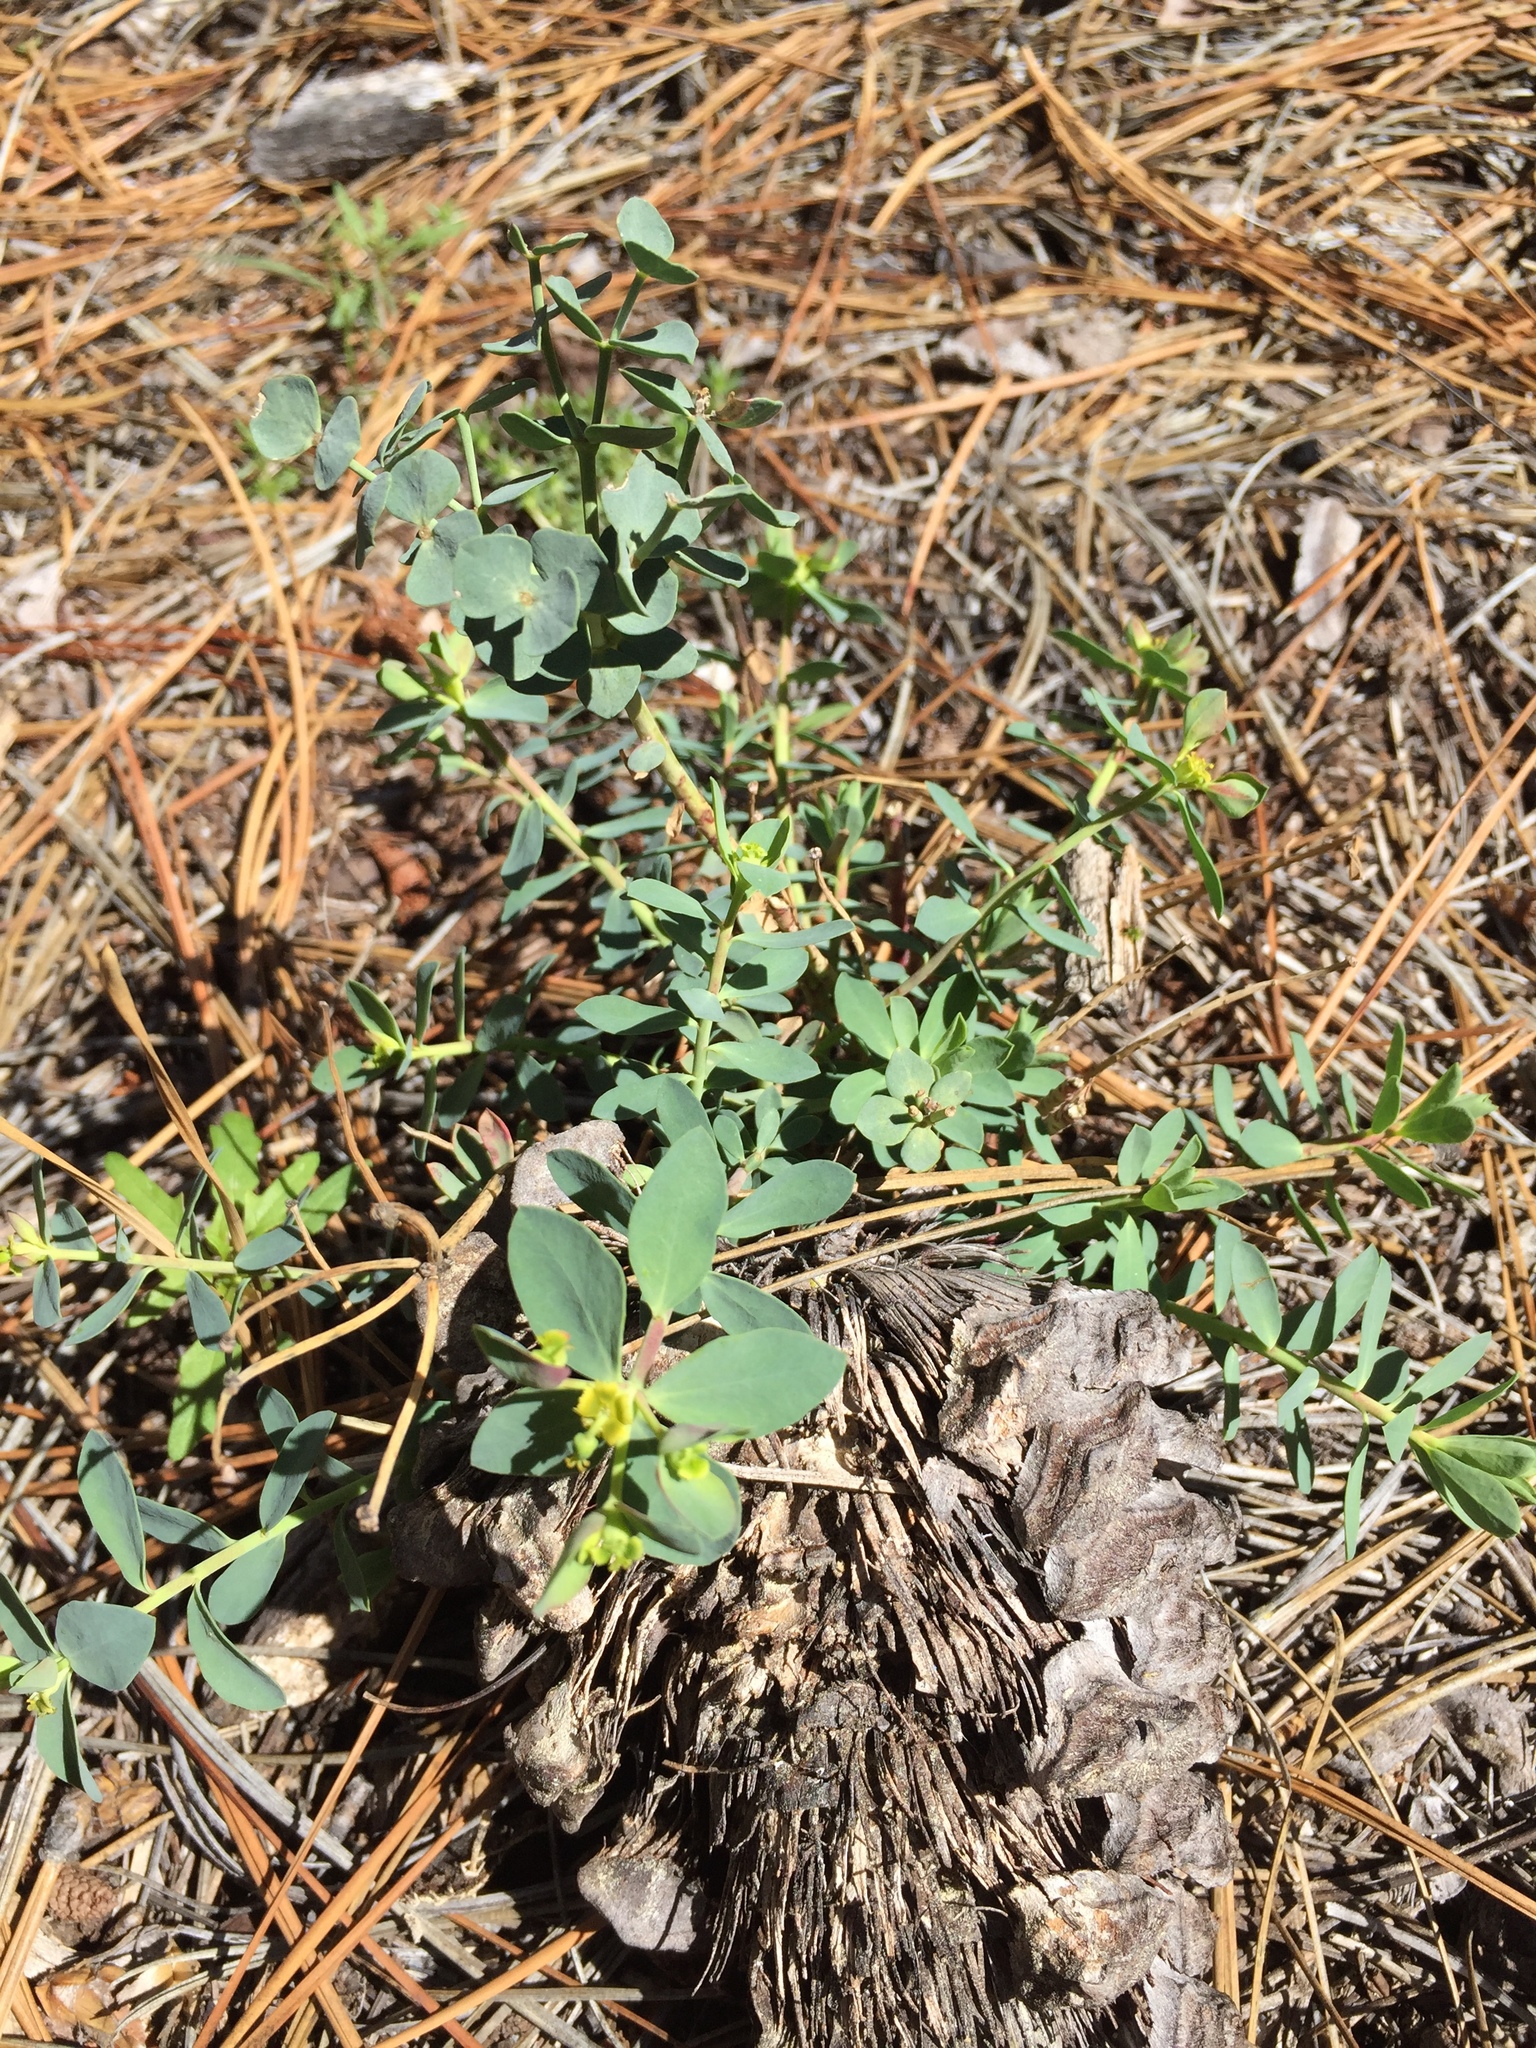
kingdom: Plantae
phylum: Tracheophyta
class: Magnoliopsida
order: Malpighiales
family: Euphorbiaceae
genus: Euphorbia
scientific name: Euphorbia lurida
